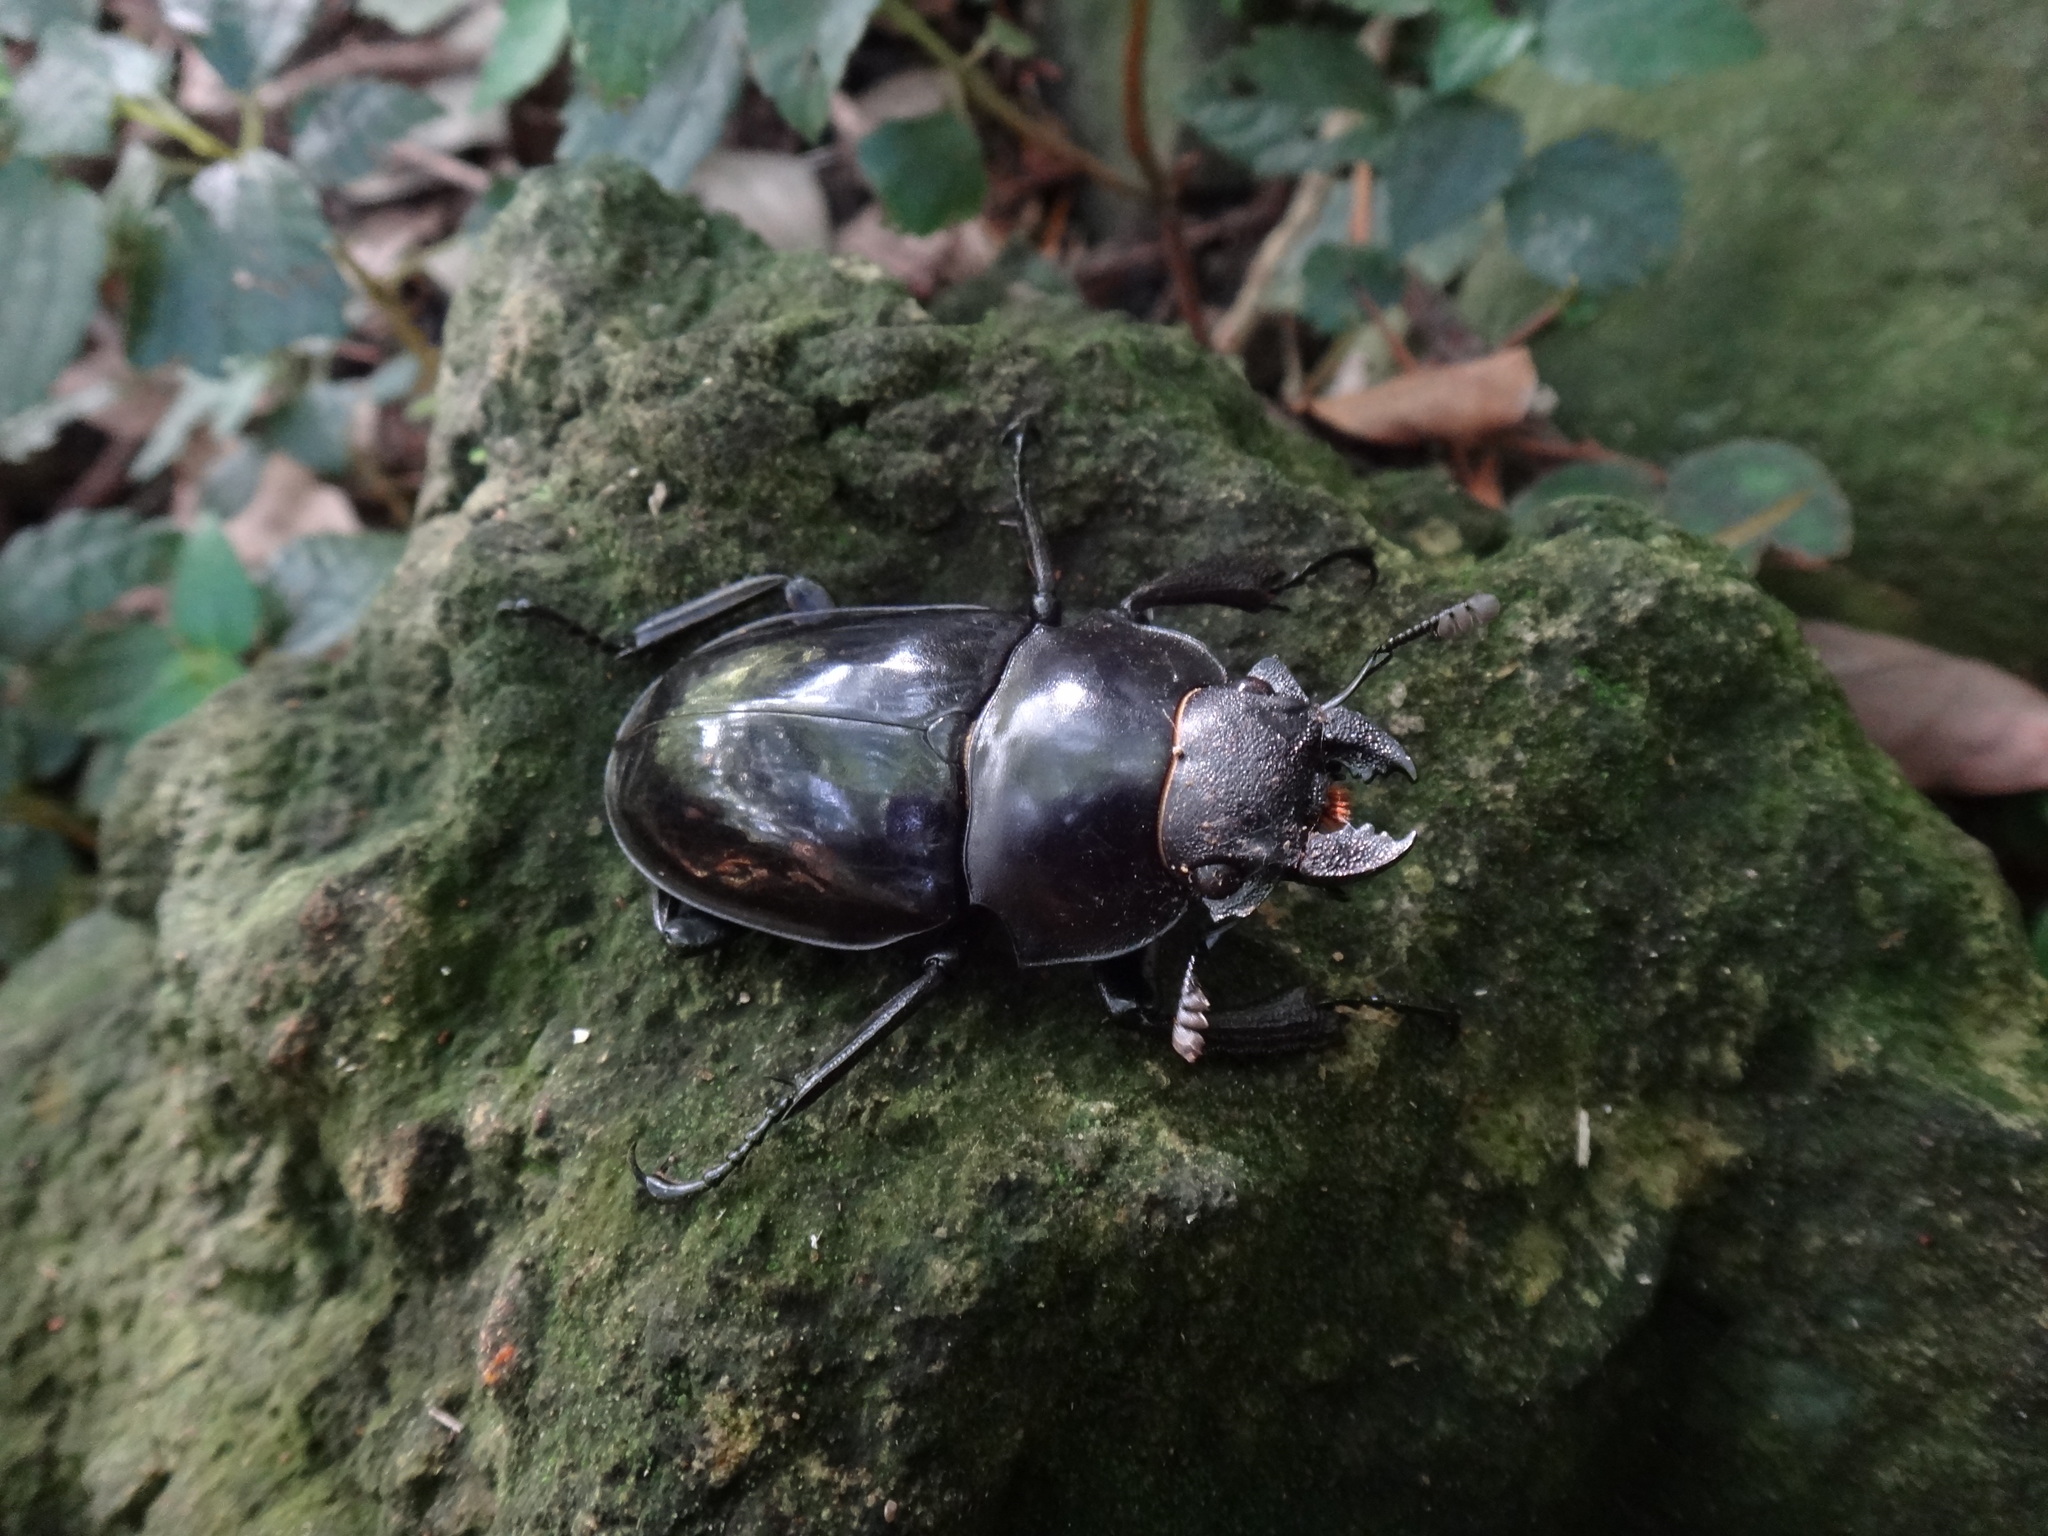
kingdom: Animalia
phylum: Arthropoda
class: Insecta
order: Coleoptera
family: Lucanidae
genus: Odontolabis
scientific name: Odontolabis siva
